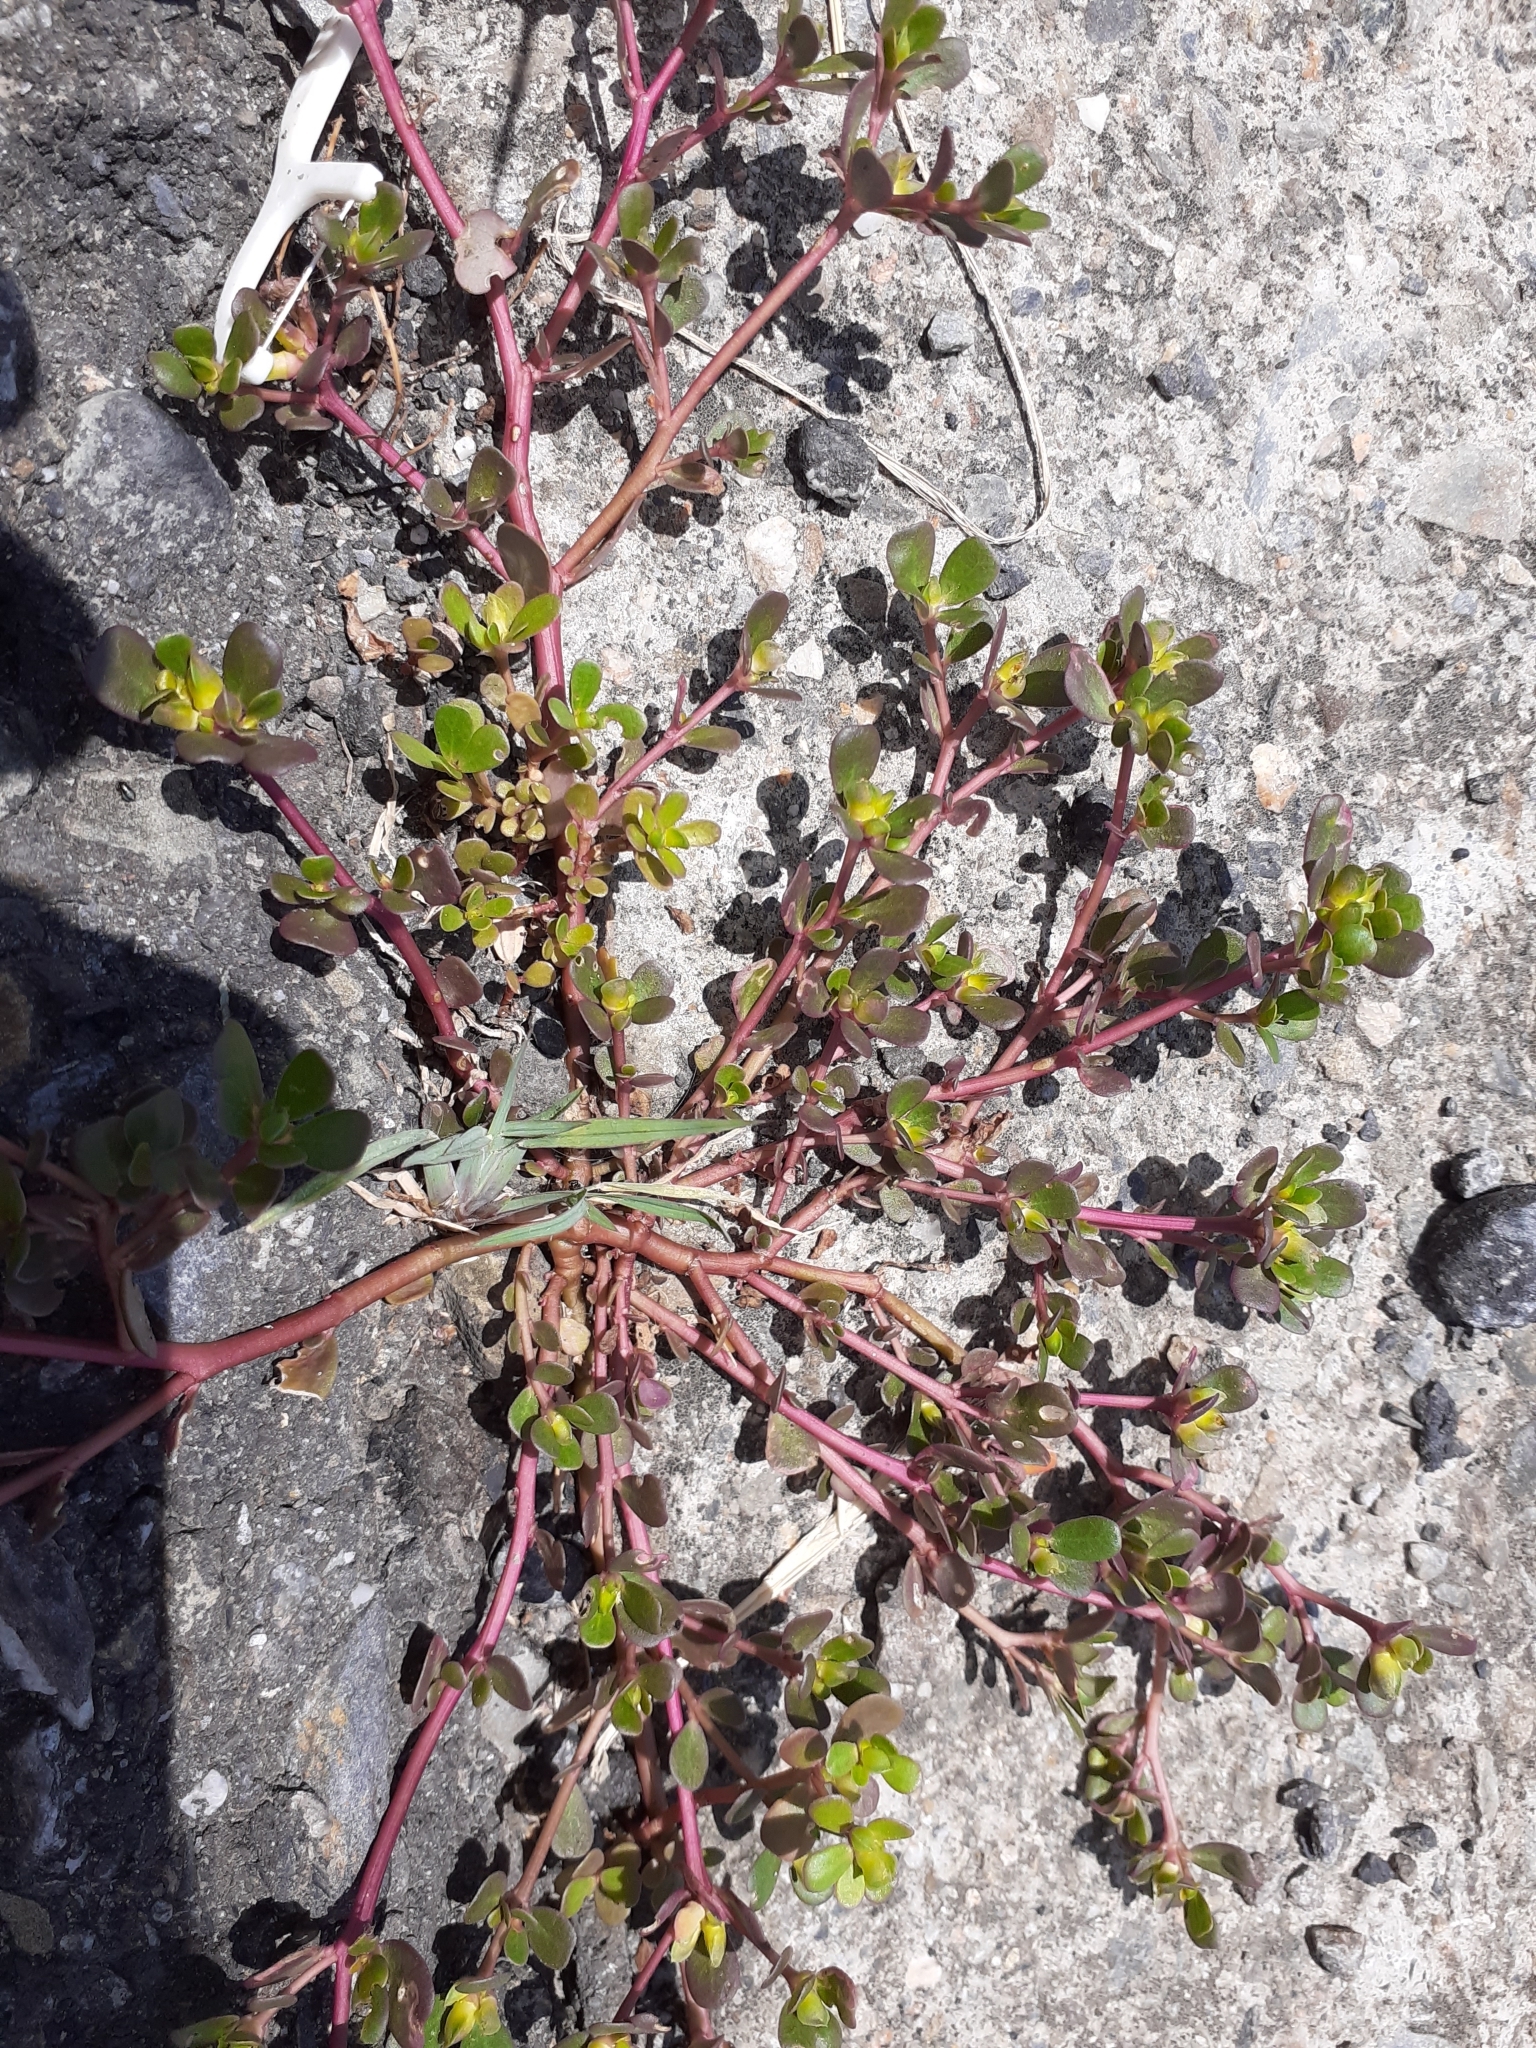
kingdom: Plantae
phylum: Tracheophyta
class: Magnoliopsida
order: Caryophyllales
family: Portulacaceae
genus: Portulaca
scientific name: Portulaca oleracea
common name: Common purslane
